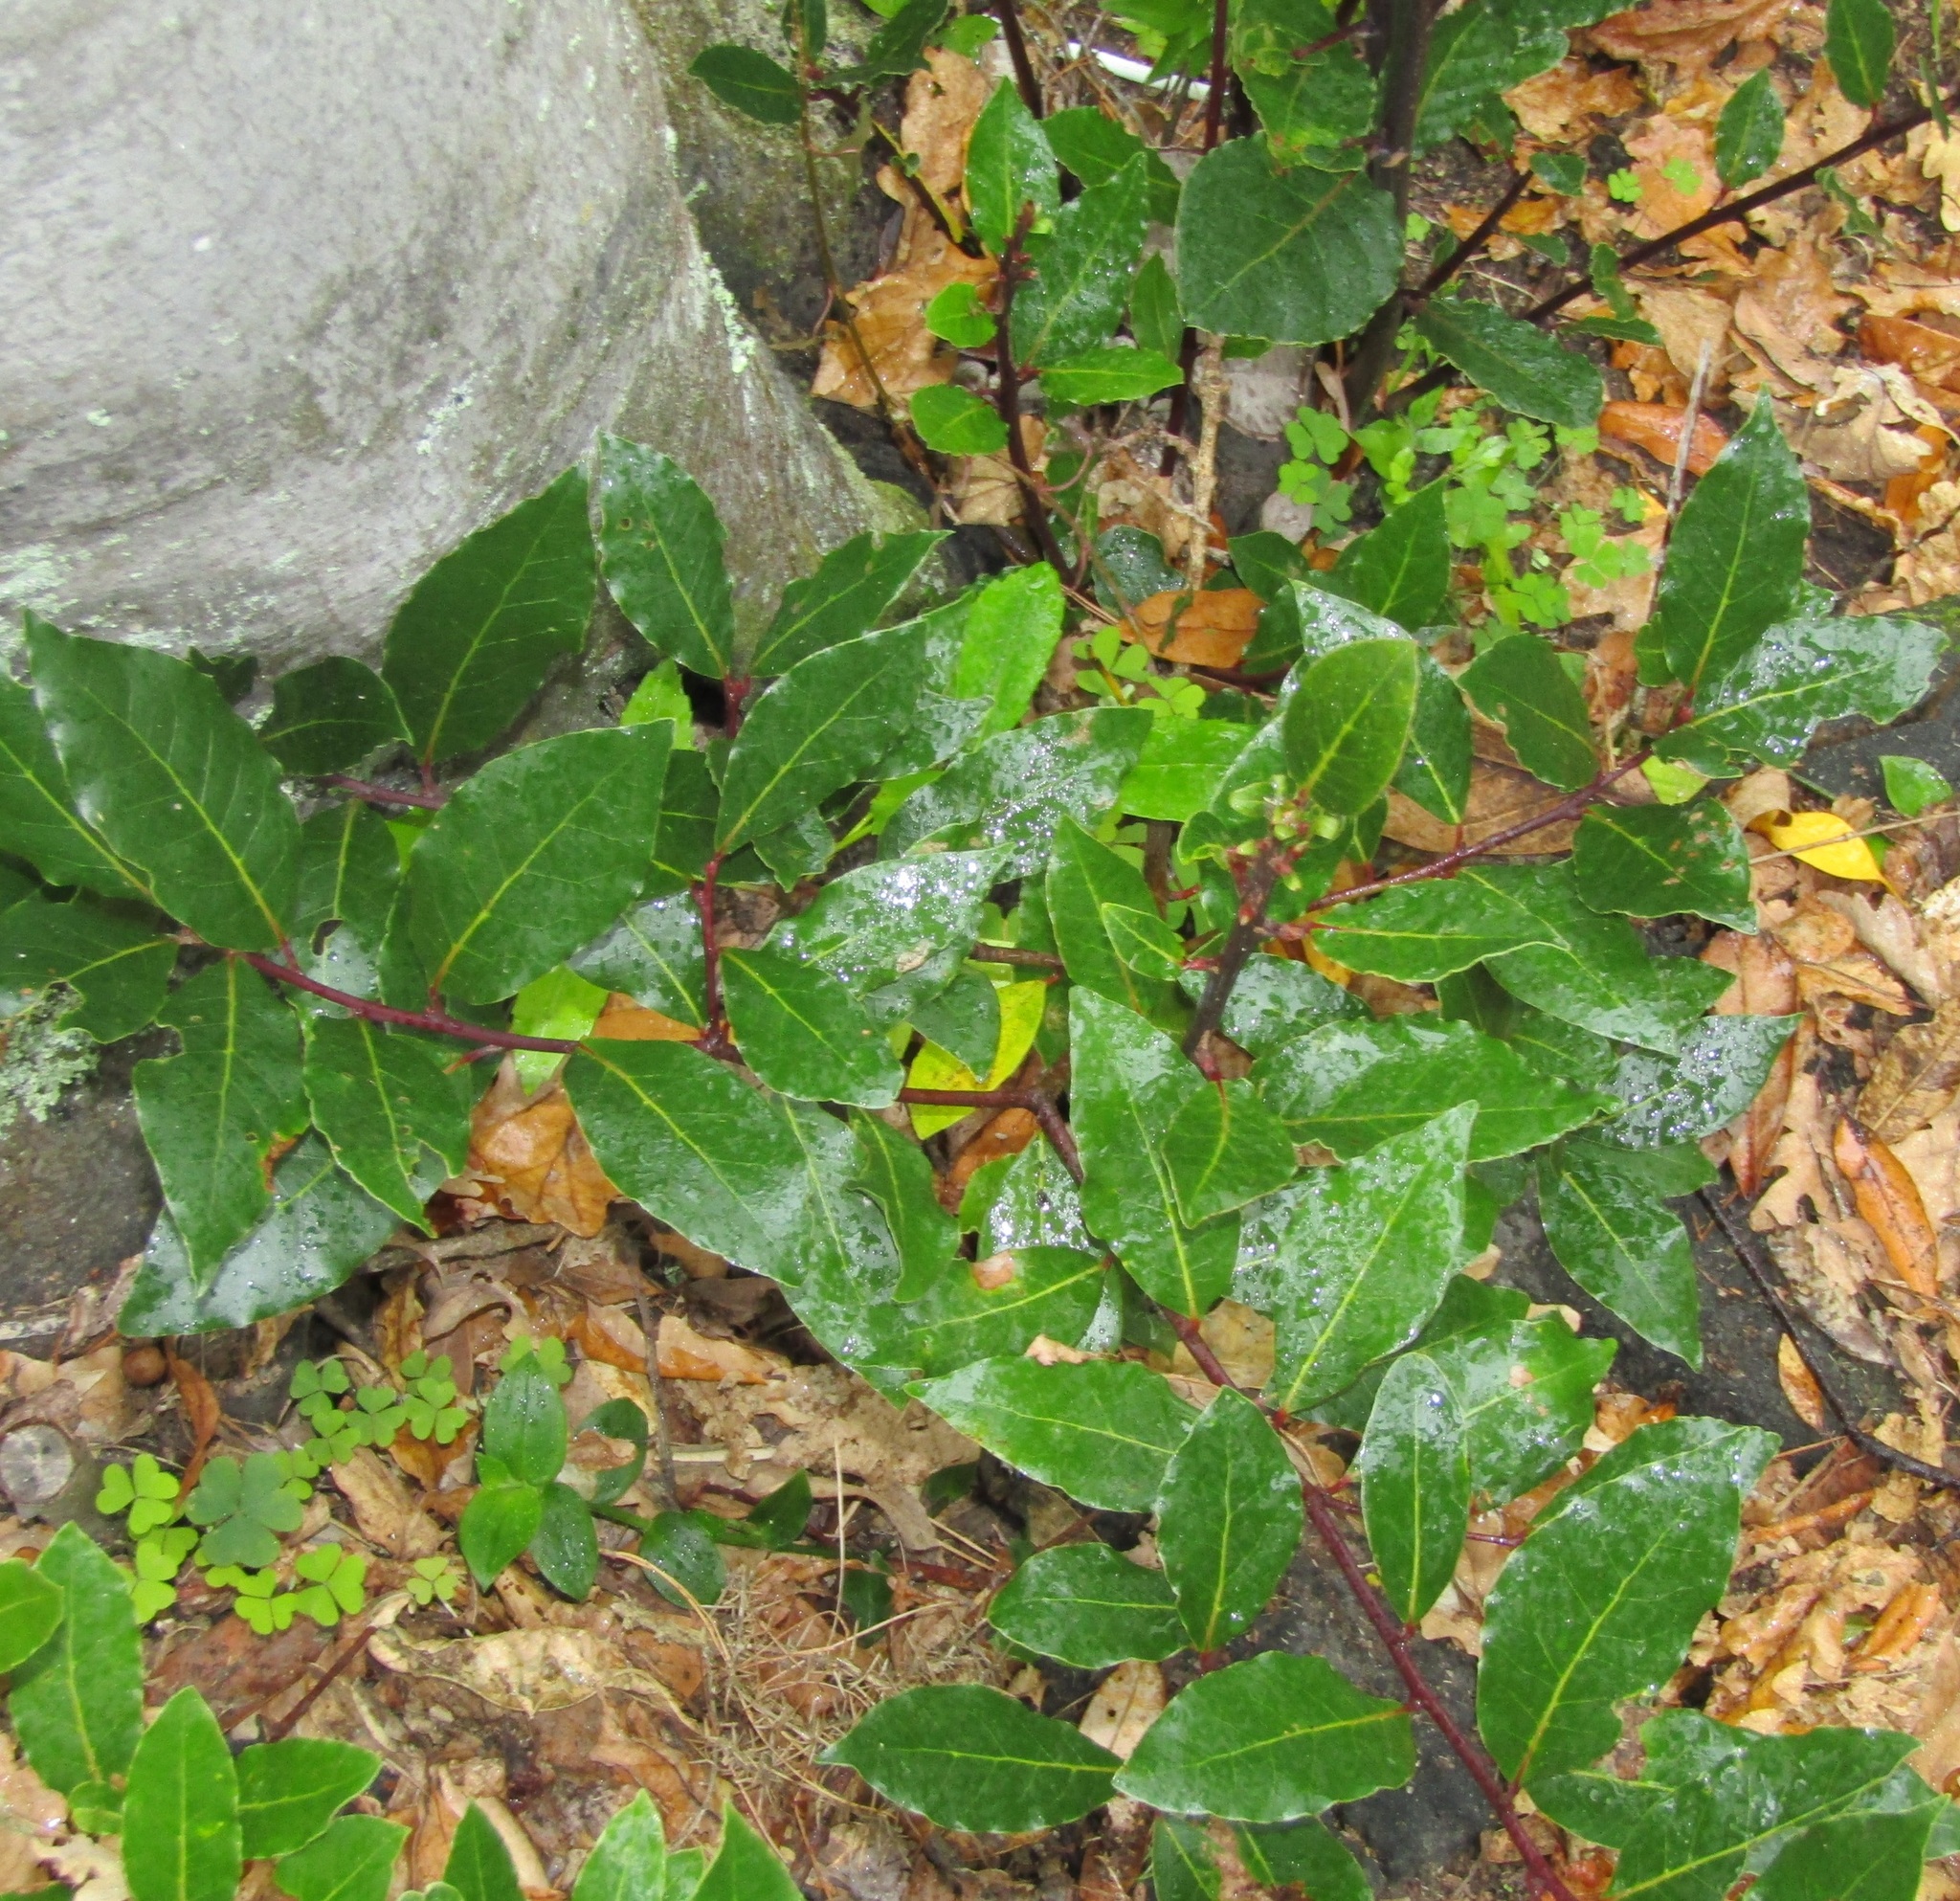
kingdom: Plantae
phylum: Tracheophyta
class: Magnoliopsida
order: Laurales
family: Lauraceae
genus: Laurus
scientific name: Laurus nobilis
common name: Bay
